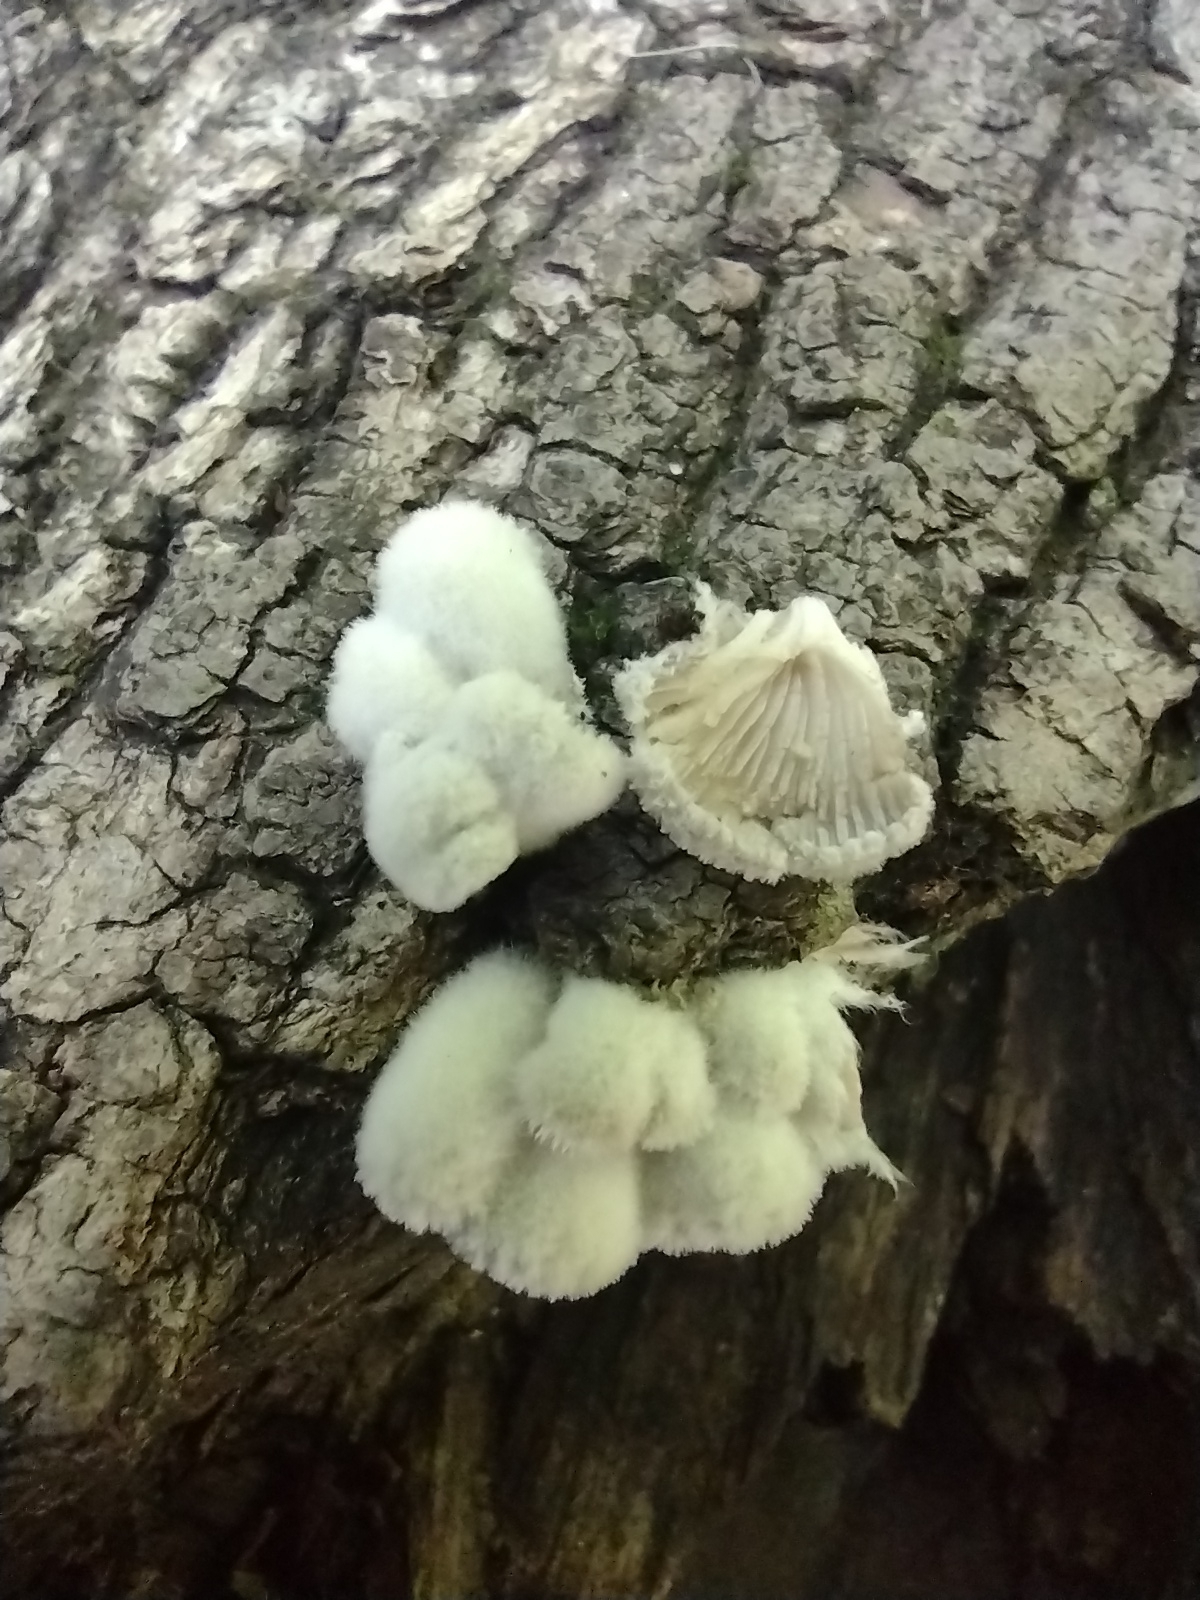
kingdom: Fungi
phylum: Basidiomycota
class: Agaricomycetes
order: Agaricales
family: Schizophyllaceae
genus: Schizophyllum
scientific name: Schizophyllum commune
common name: Common porecrust
